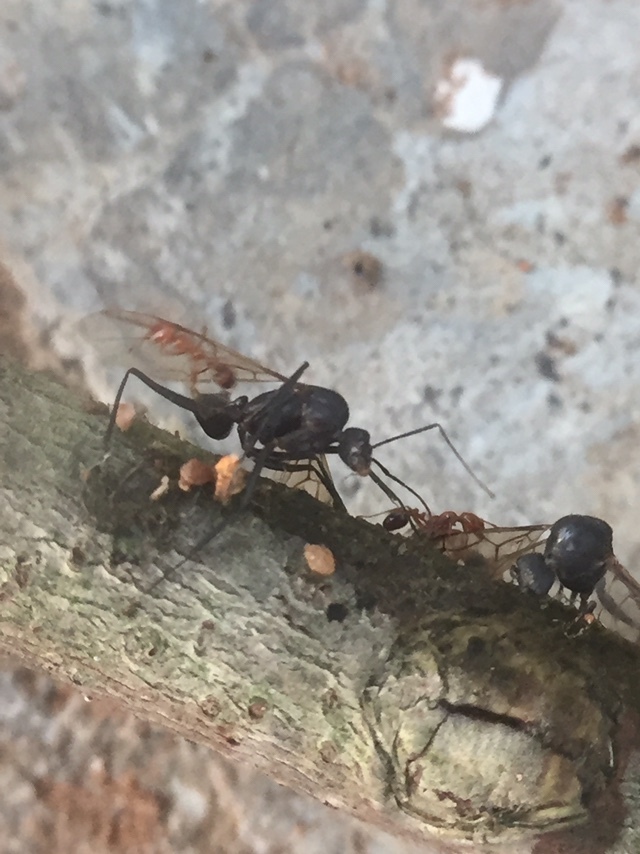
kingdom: Animalia
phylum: Arthropoda
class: Insecta
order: Hymenoptera
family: Formicidae
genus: Solenopsis
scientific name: Solenopsis geminata
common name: Tropical fire ant
